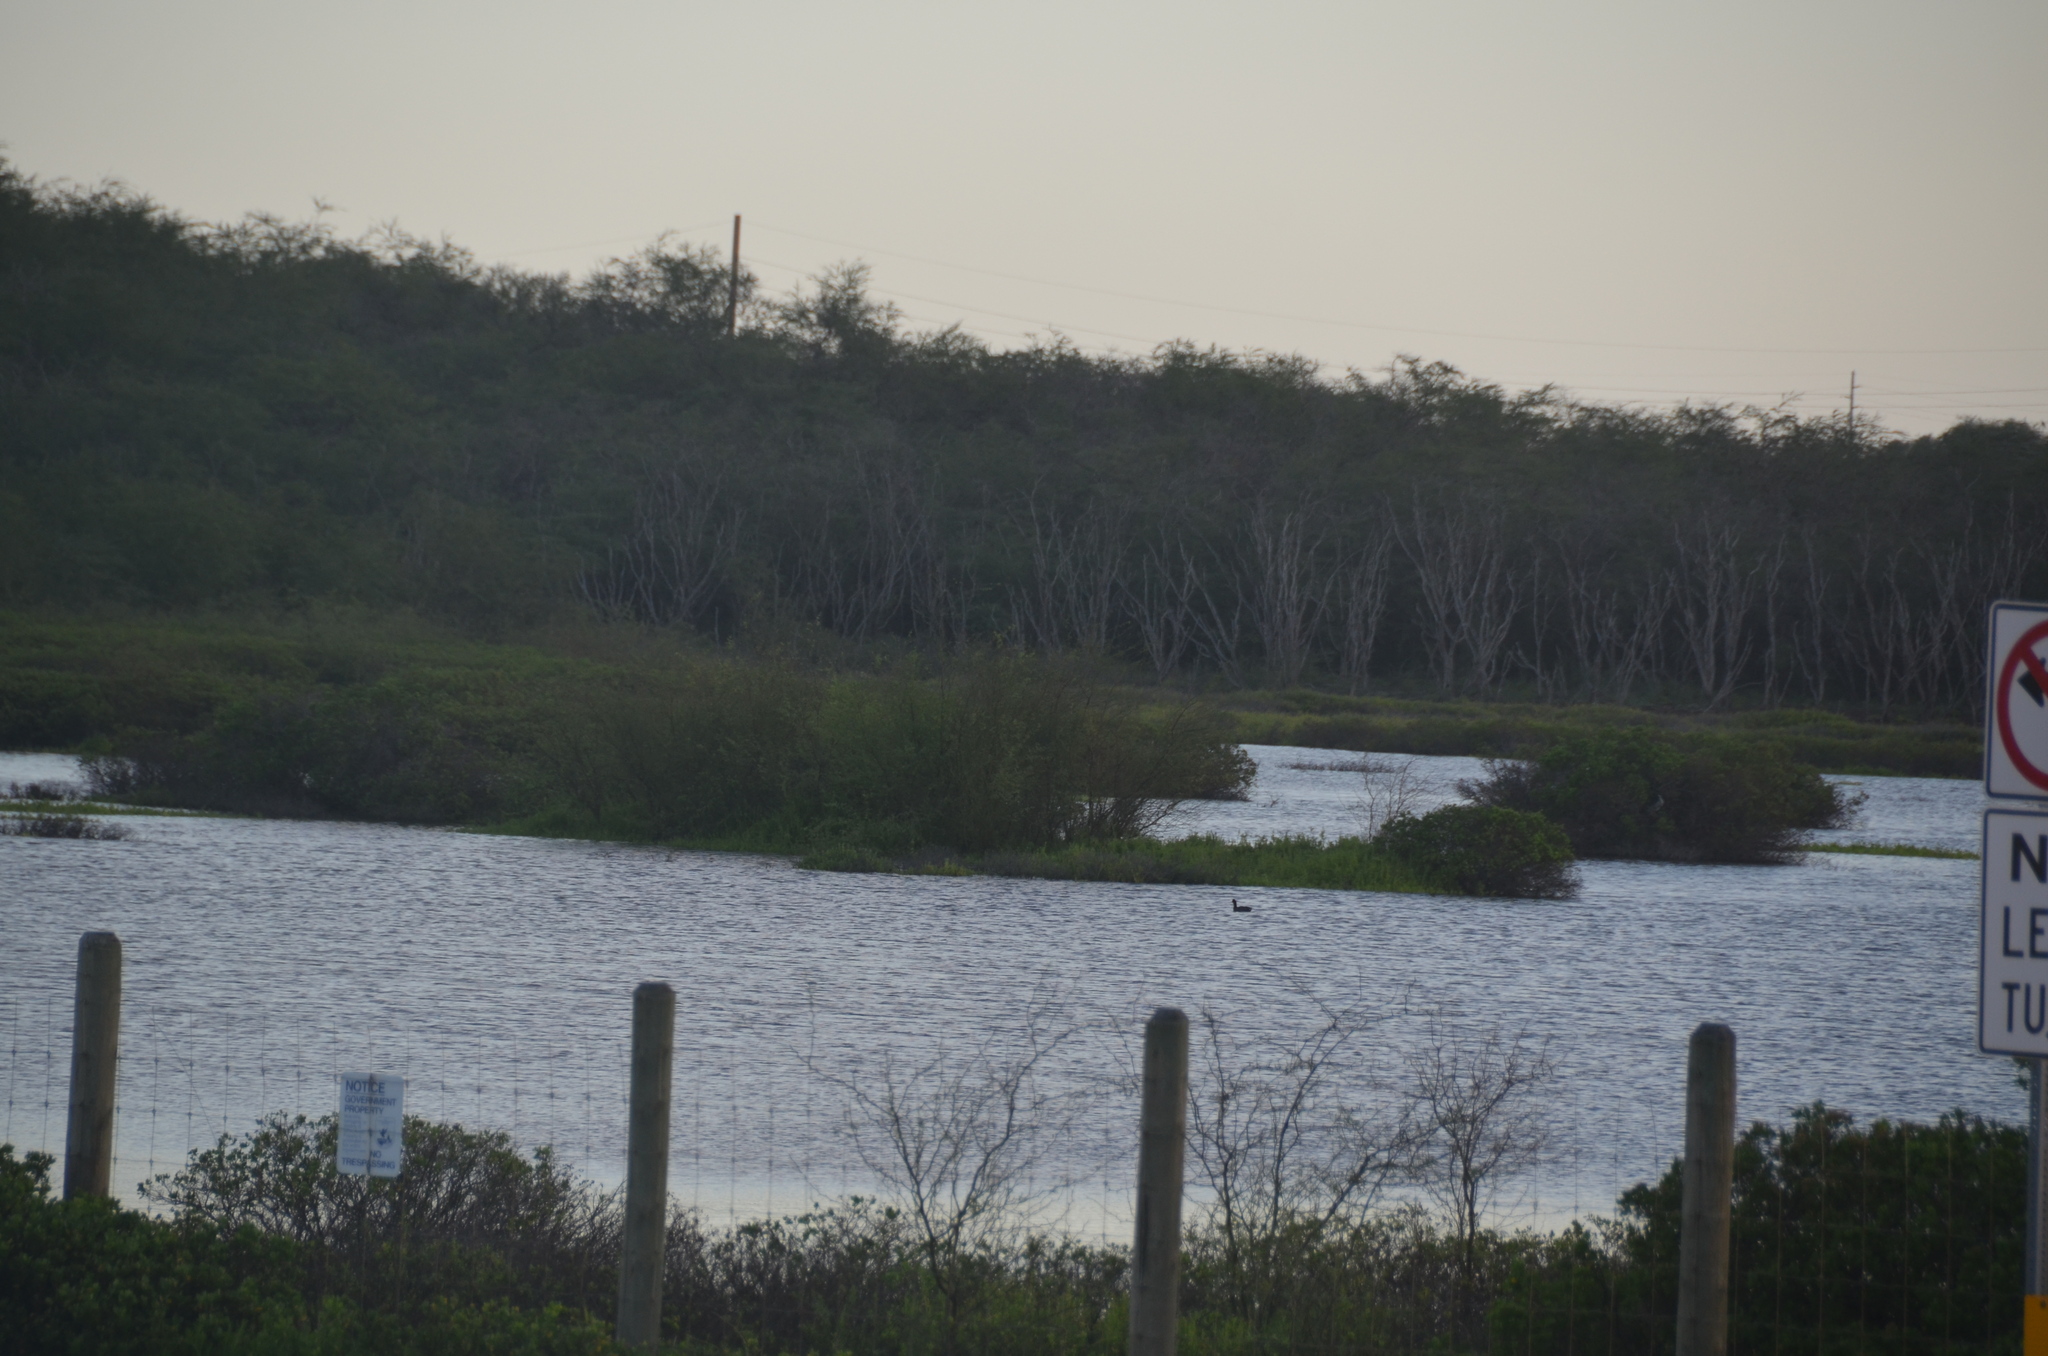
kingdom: Animalia
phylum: Chordata
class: Aves
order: Gruiformes
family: Rallidae
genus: Fulica
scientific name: Fulica alai
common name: Hawaiian coot
